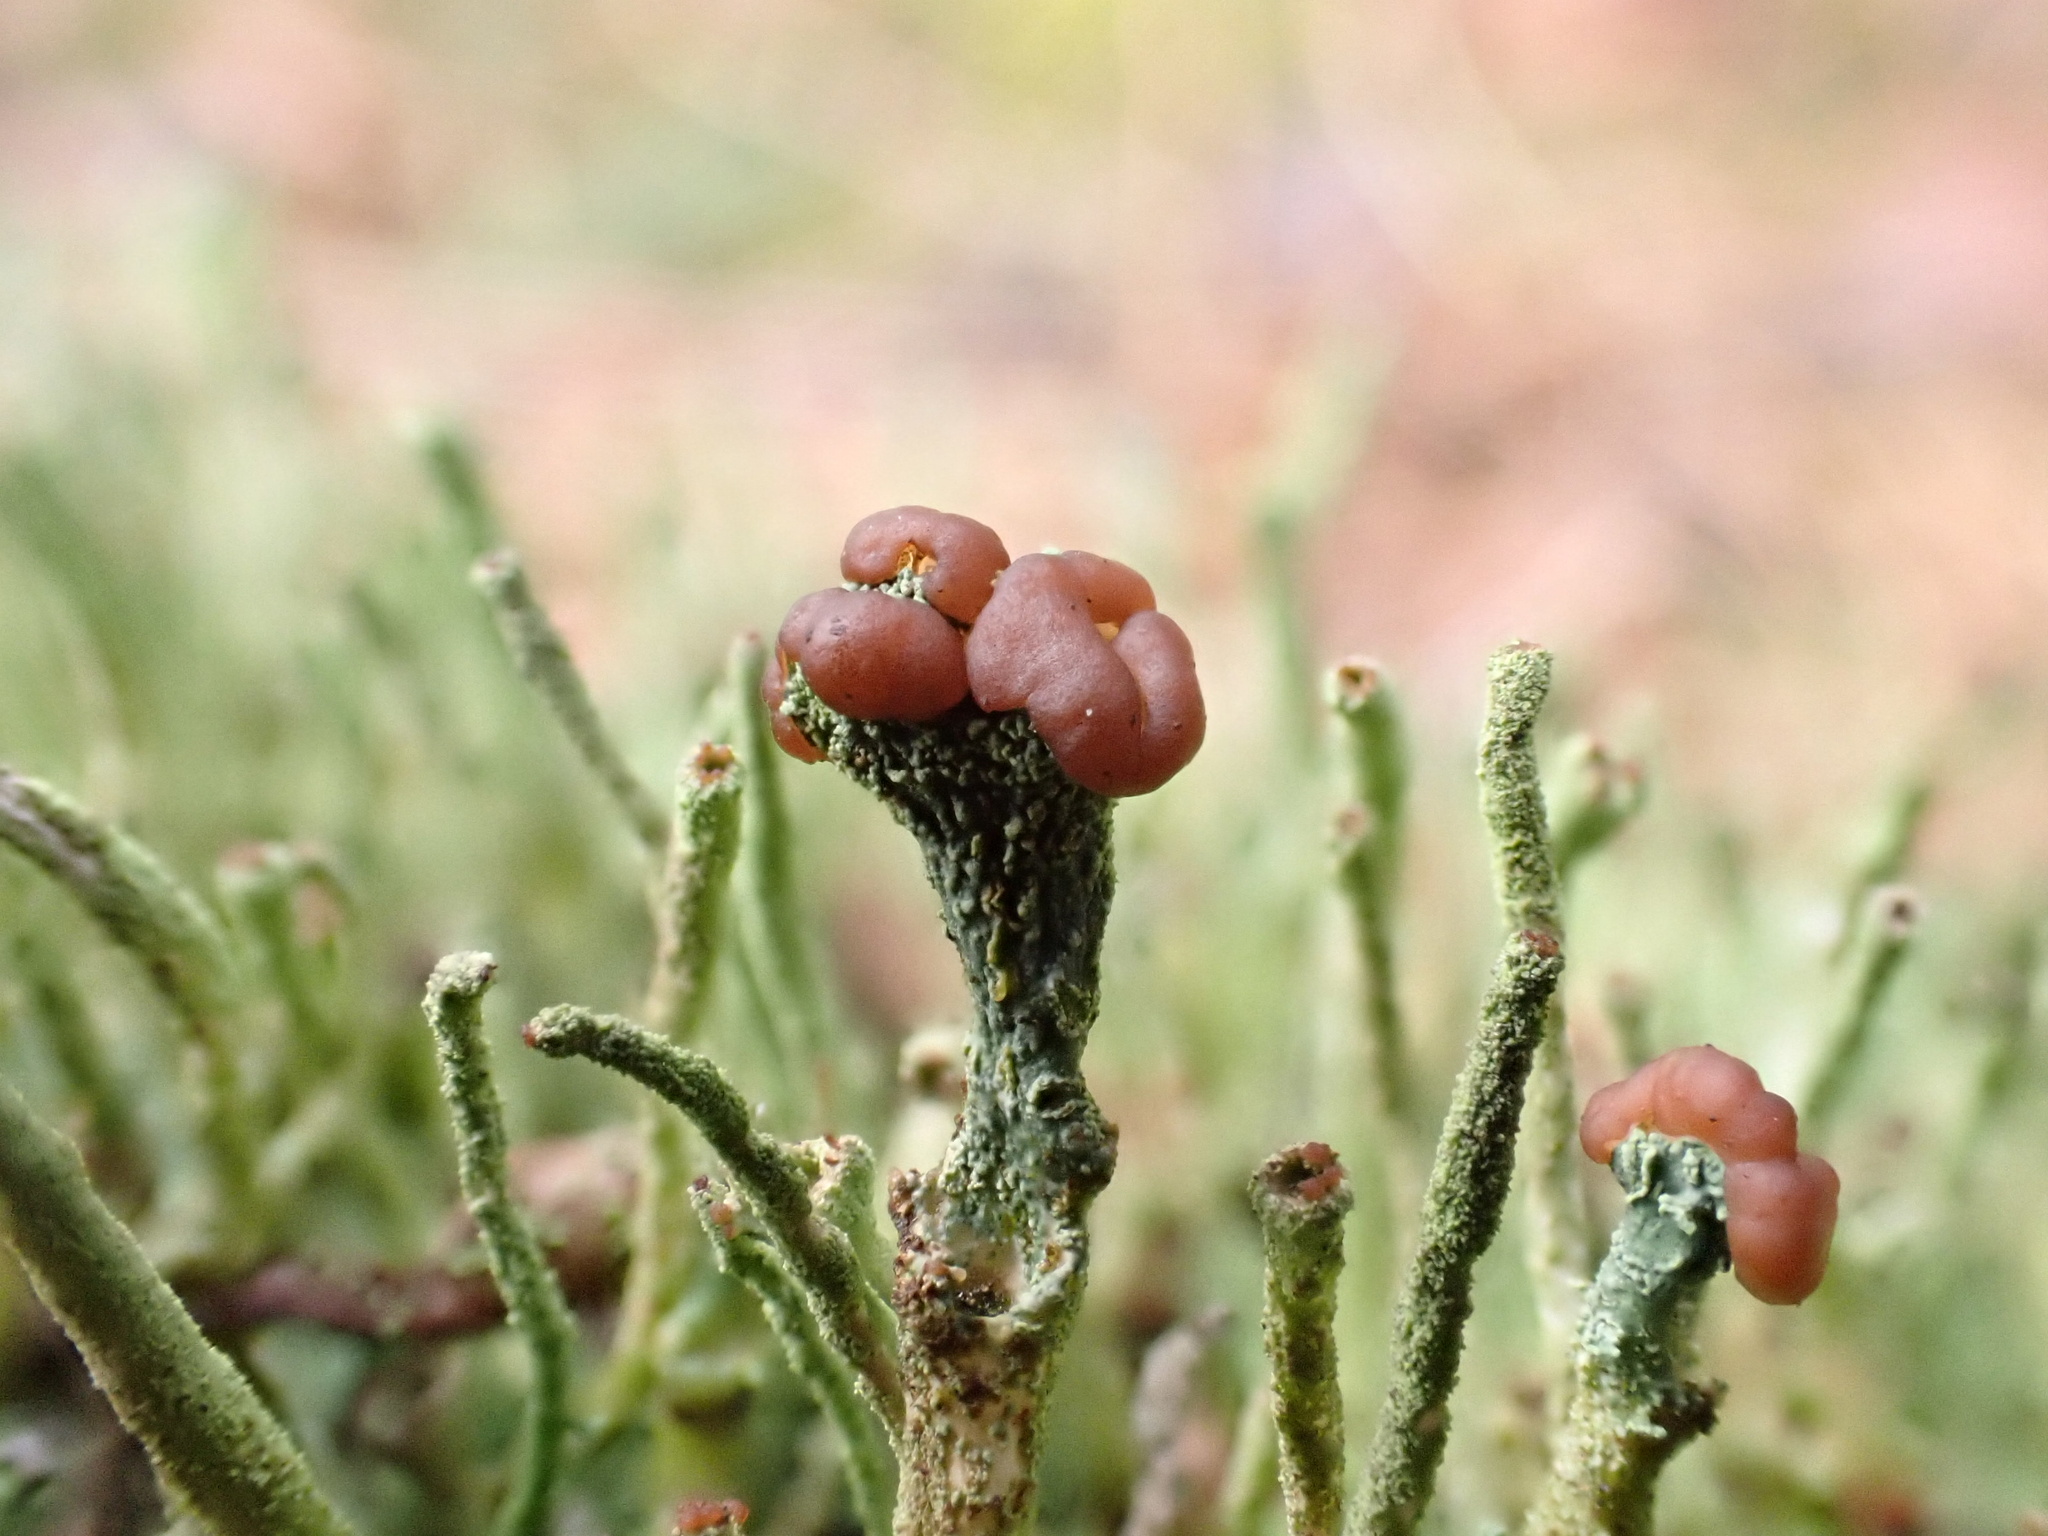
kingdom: Fungi
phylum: Ascomycota
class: Lecanoromycetes
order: Lecanorales
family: Cladoniaceae
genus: Cladonia
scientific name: Cladonia grayi
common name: Gray's cup lichen
